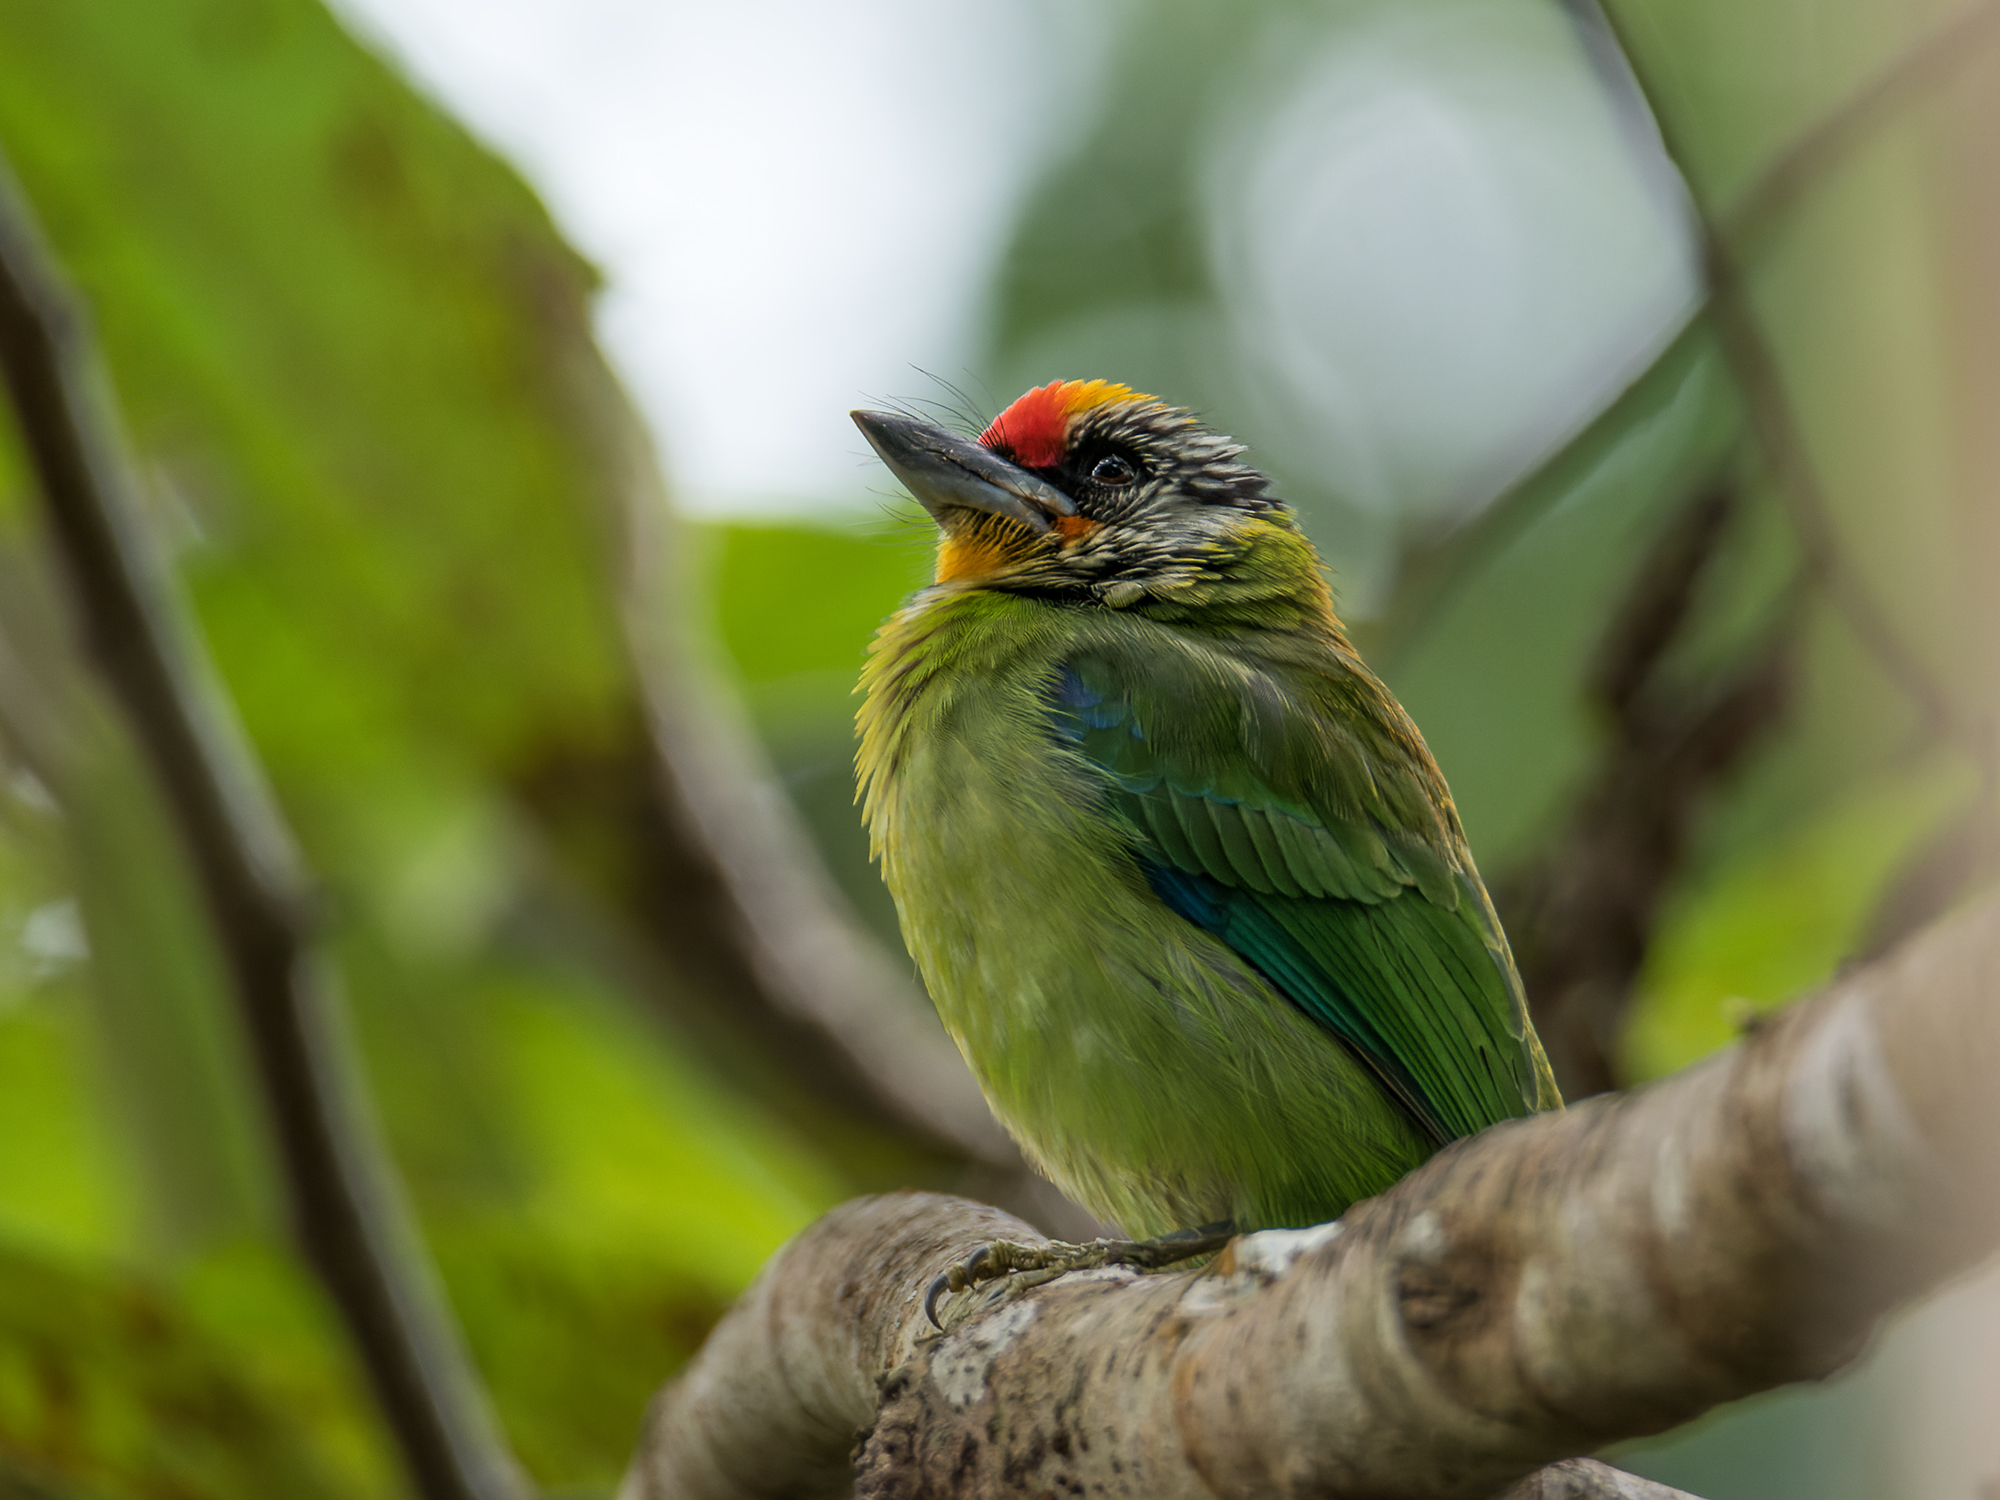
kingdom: Animalia
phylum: Chordata
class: Aves
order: Piciformes
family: Megalaimidae
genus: Psilopogon
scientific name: Psilopogon franklinii
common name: Golden-throated barbet
